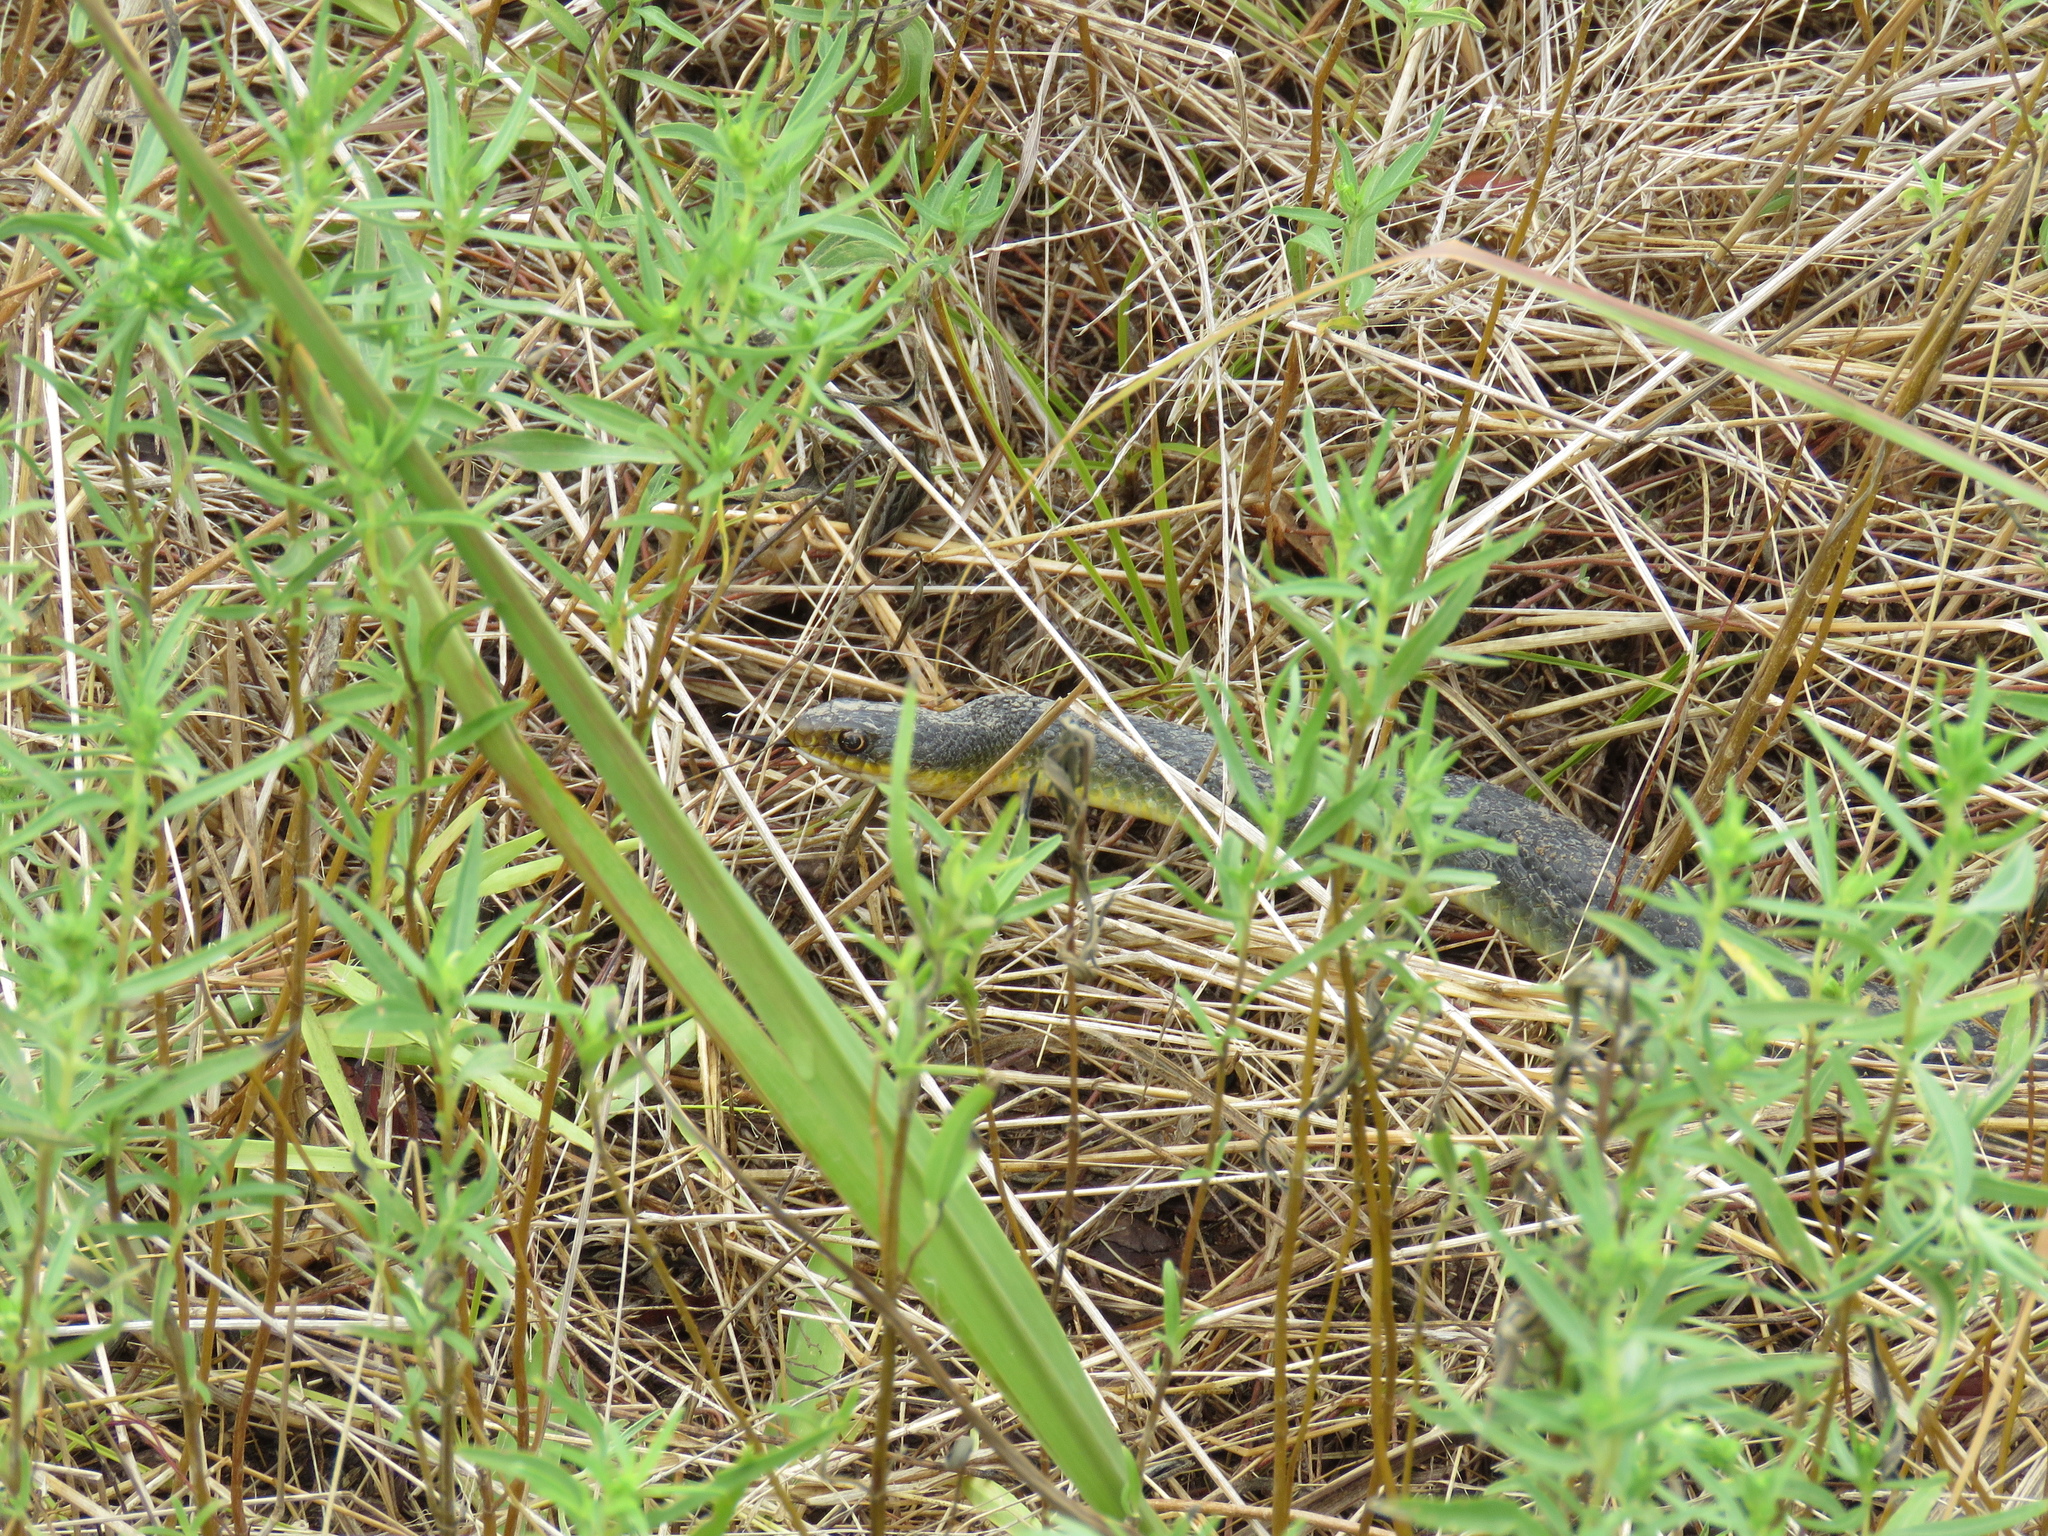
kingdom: Animalia
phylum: Chordata
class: Squamata
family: Colubridae
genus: Coluber
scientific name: Coluber constrictor
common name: Eastern racer
